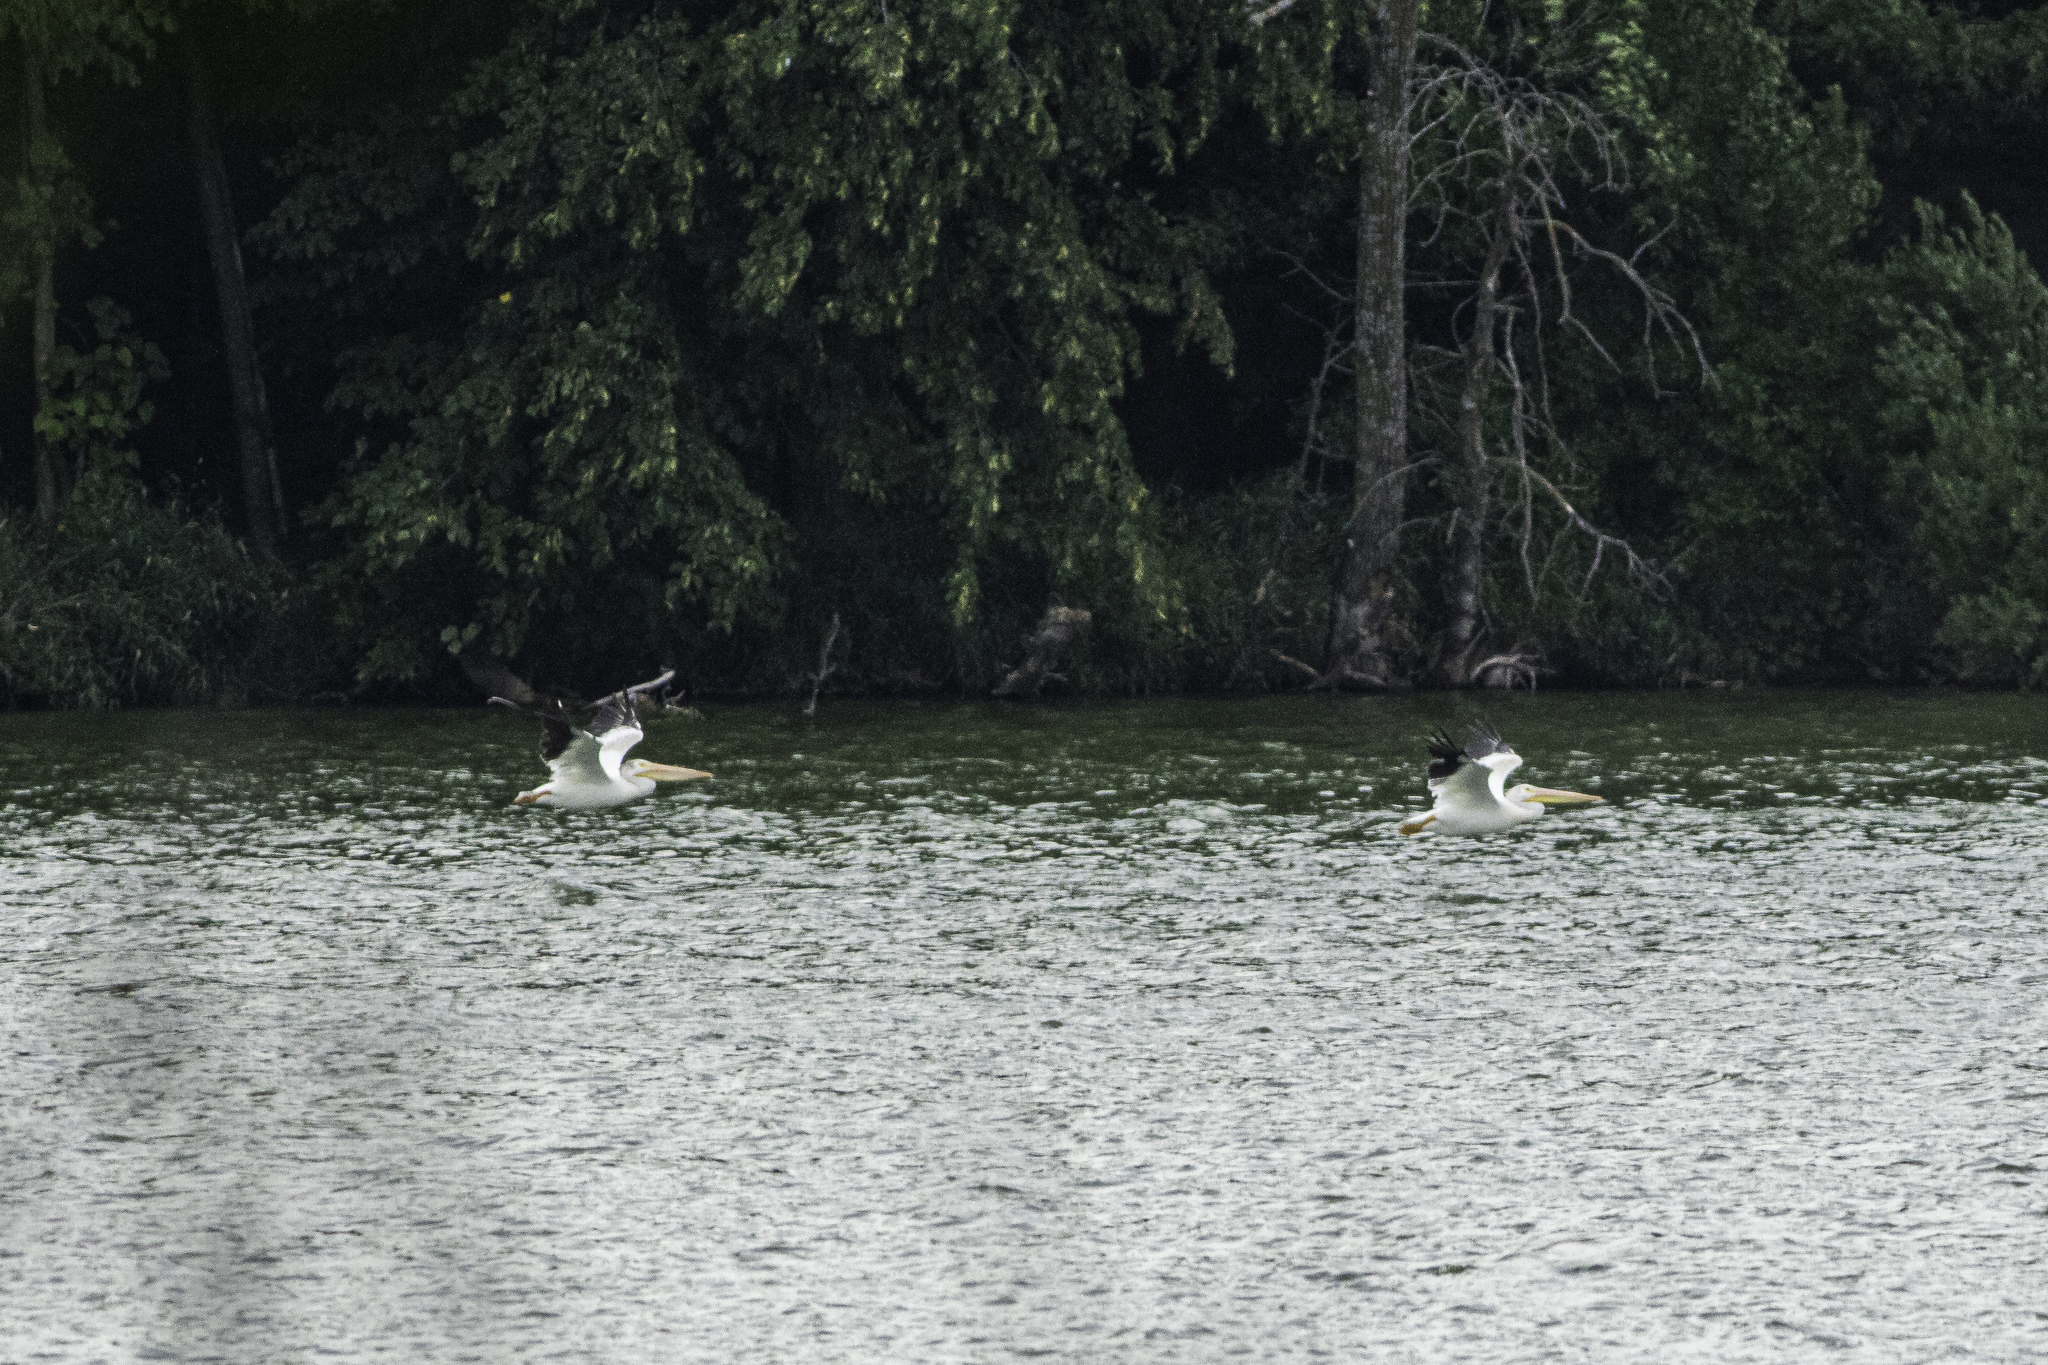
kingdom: Animalia
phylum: Chordata
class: Aves
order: Pelecaniformes
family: Pelecanidae
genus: Pelecanus
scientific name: Pelecanus erythrorhynchos
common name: American white pelican
